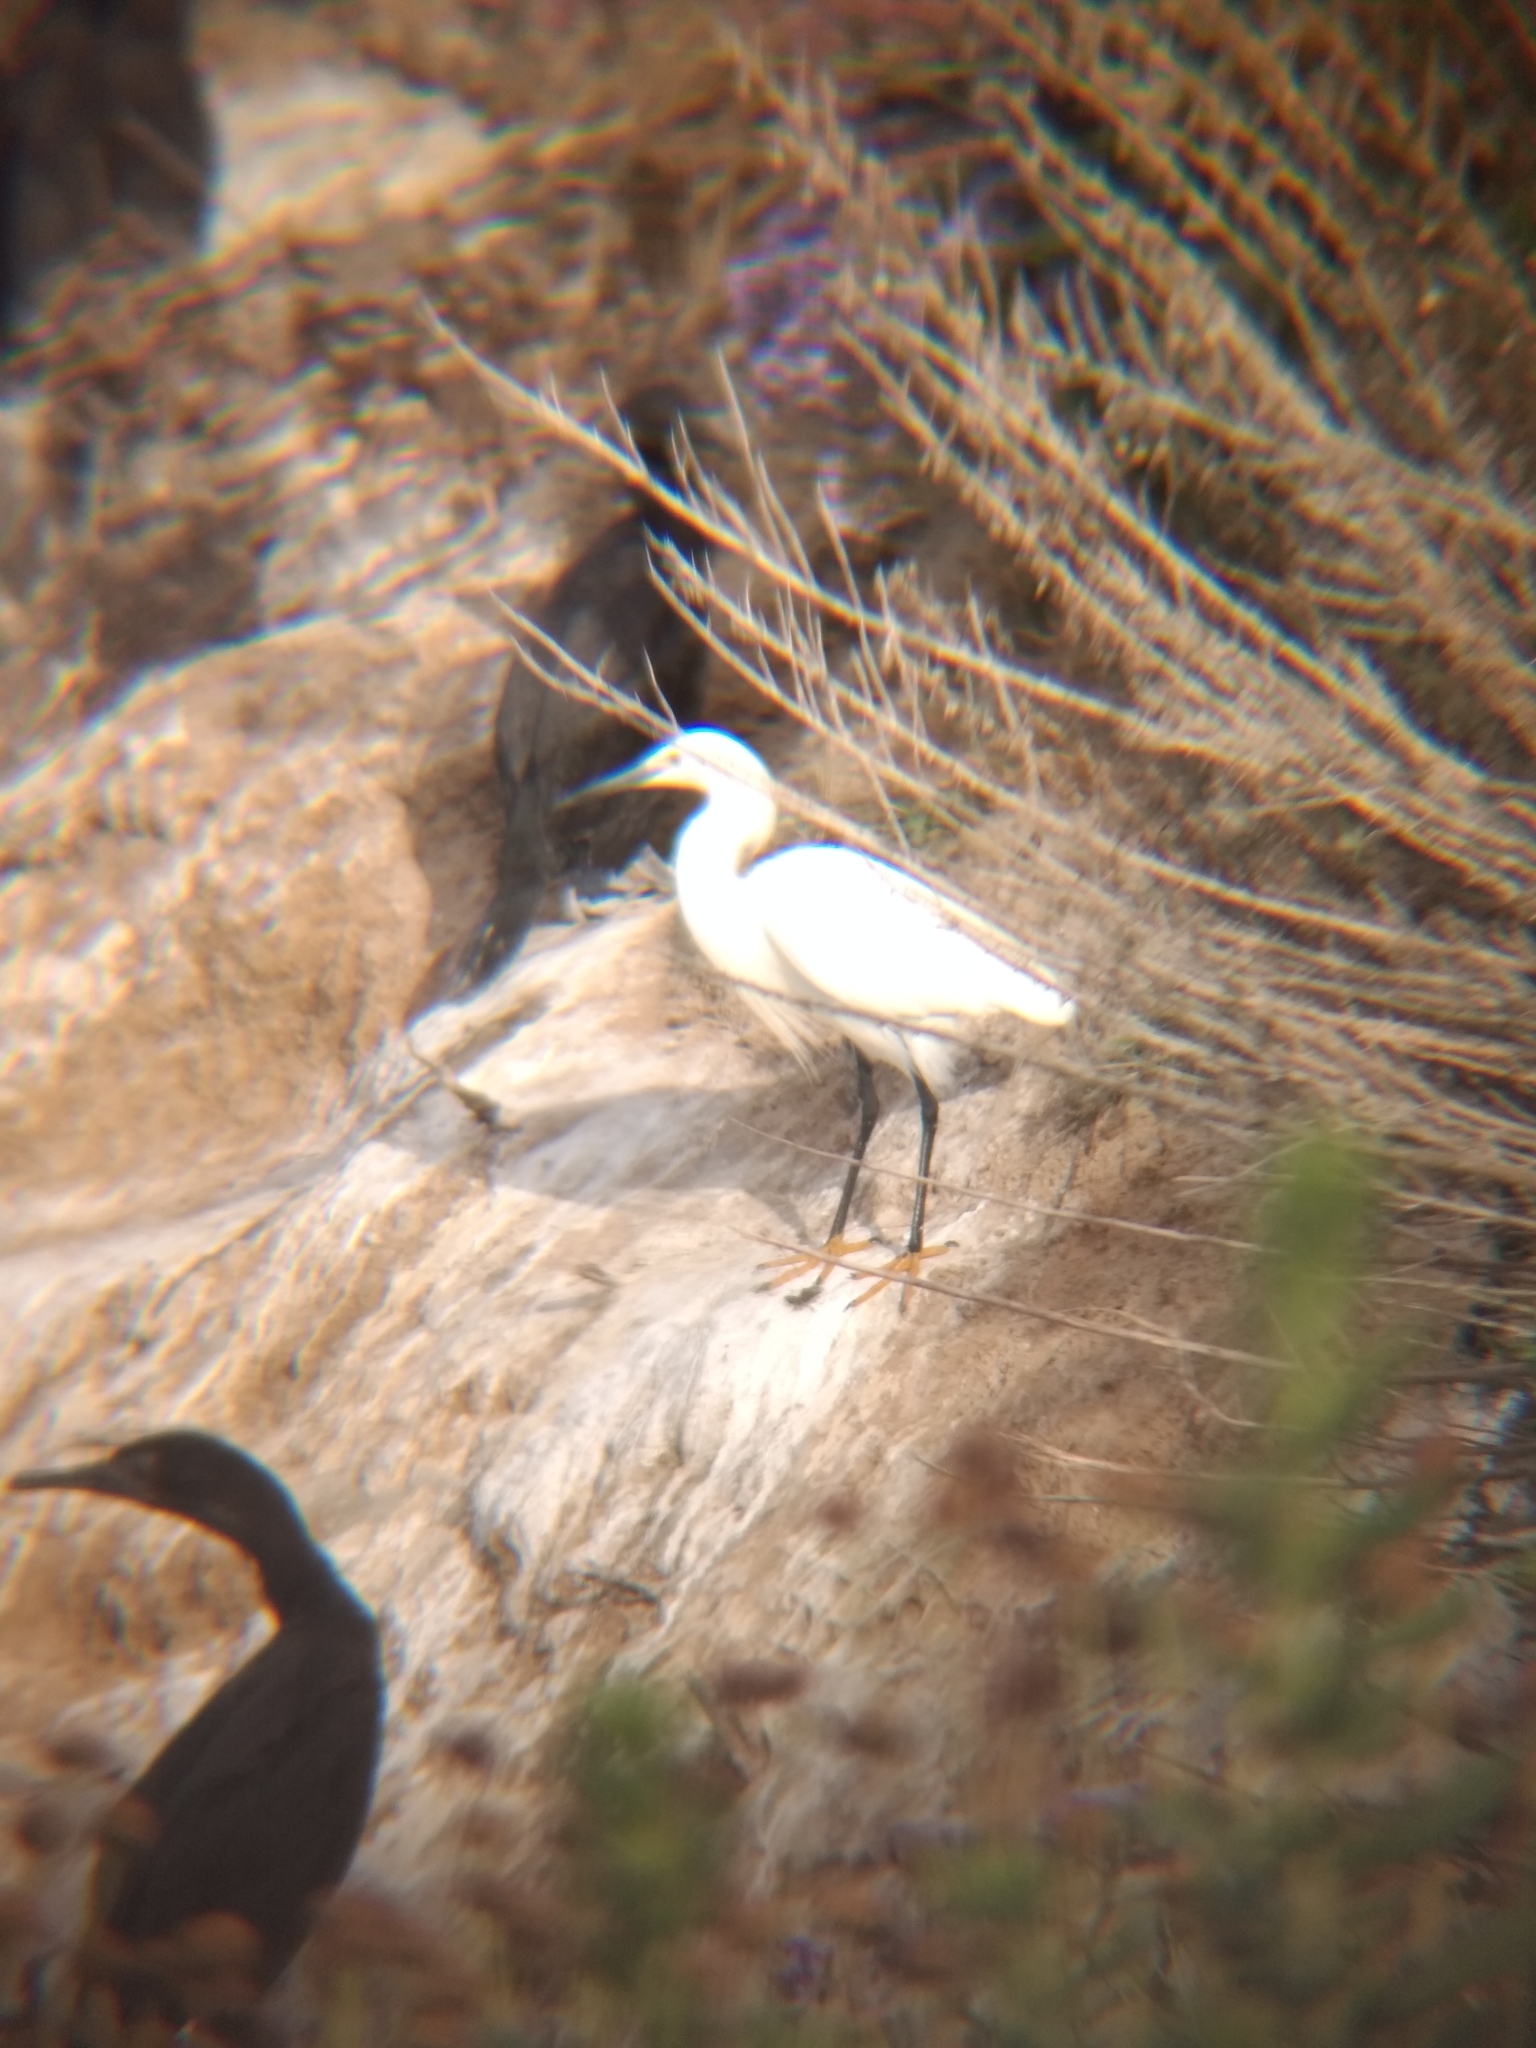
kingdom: Animalia
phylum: Chordata
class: Aves
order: Pelecaniformes
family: Ardeidae
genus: Egretta
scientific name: Egretta thula
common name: Snowy egret
